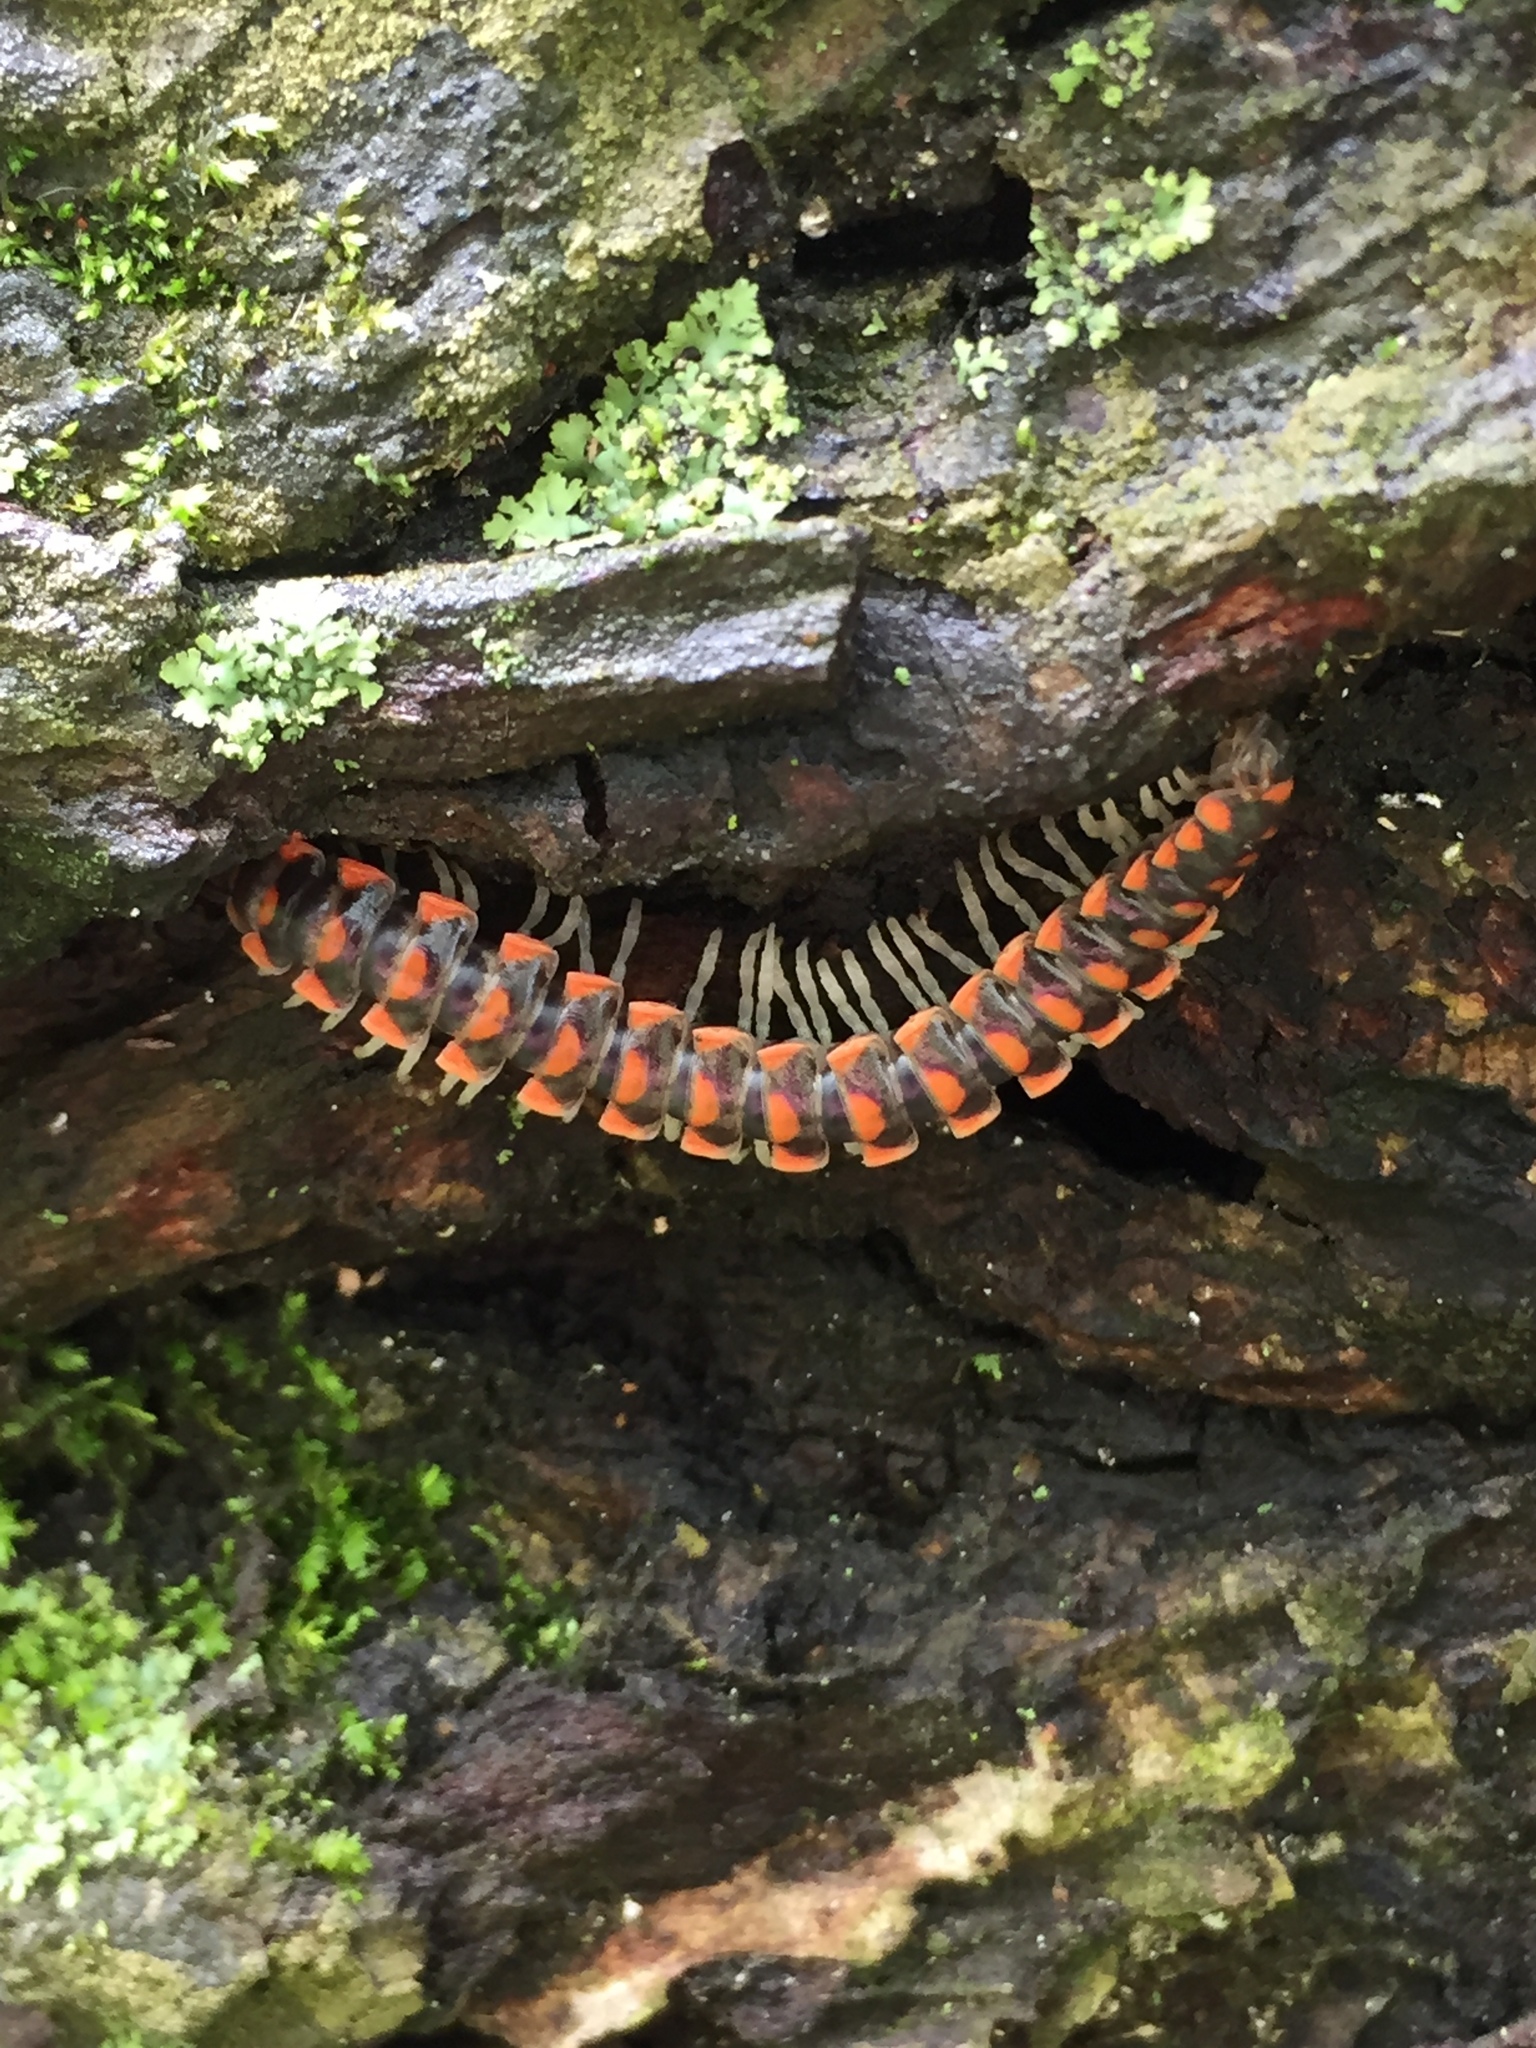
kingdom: Animalia
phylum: Arthropoda
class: Diplopoda
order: Polydesmida
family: Xystodesmidae
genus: Euryurus
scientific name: Euryurus leachii
